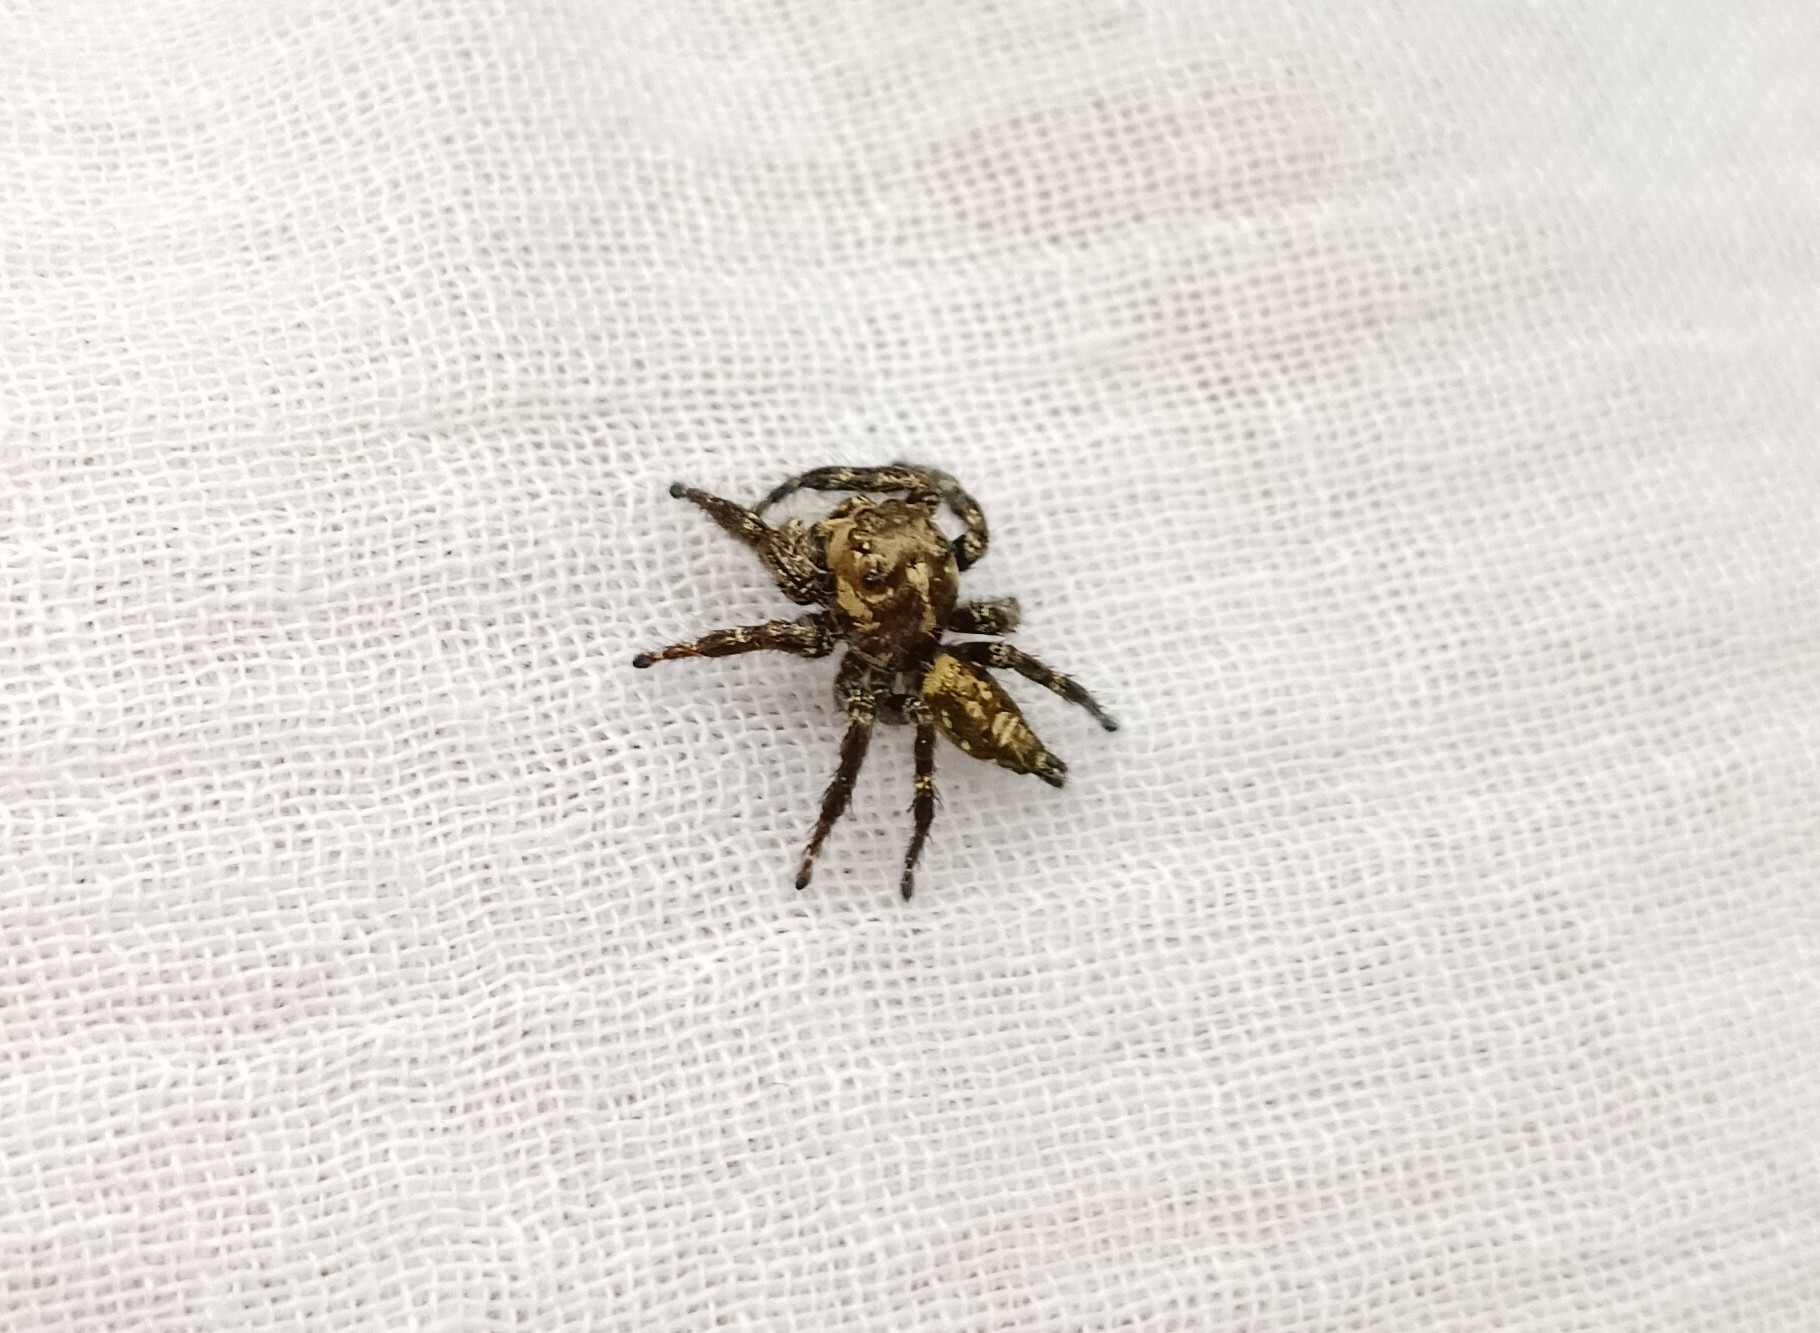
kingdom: Animalia
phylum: Arthropoda
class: Arachnida
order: Araneae
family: Salticidae
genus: Hyllus
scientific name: Hyllus semicupreus
